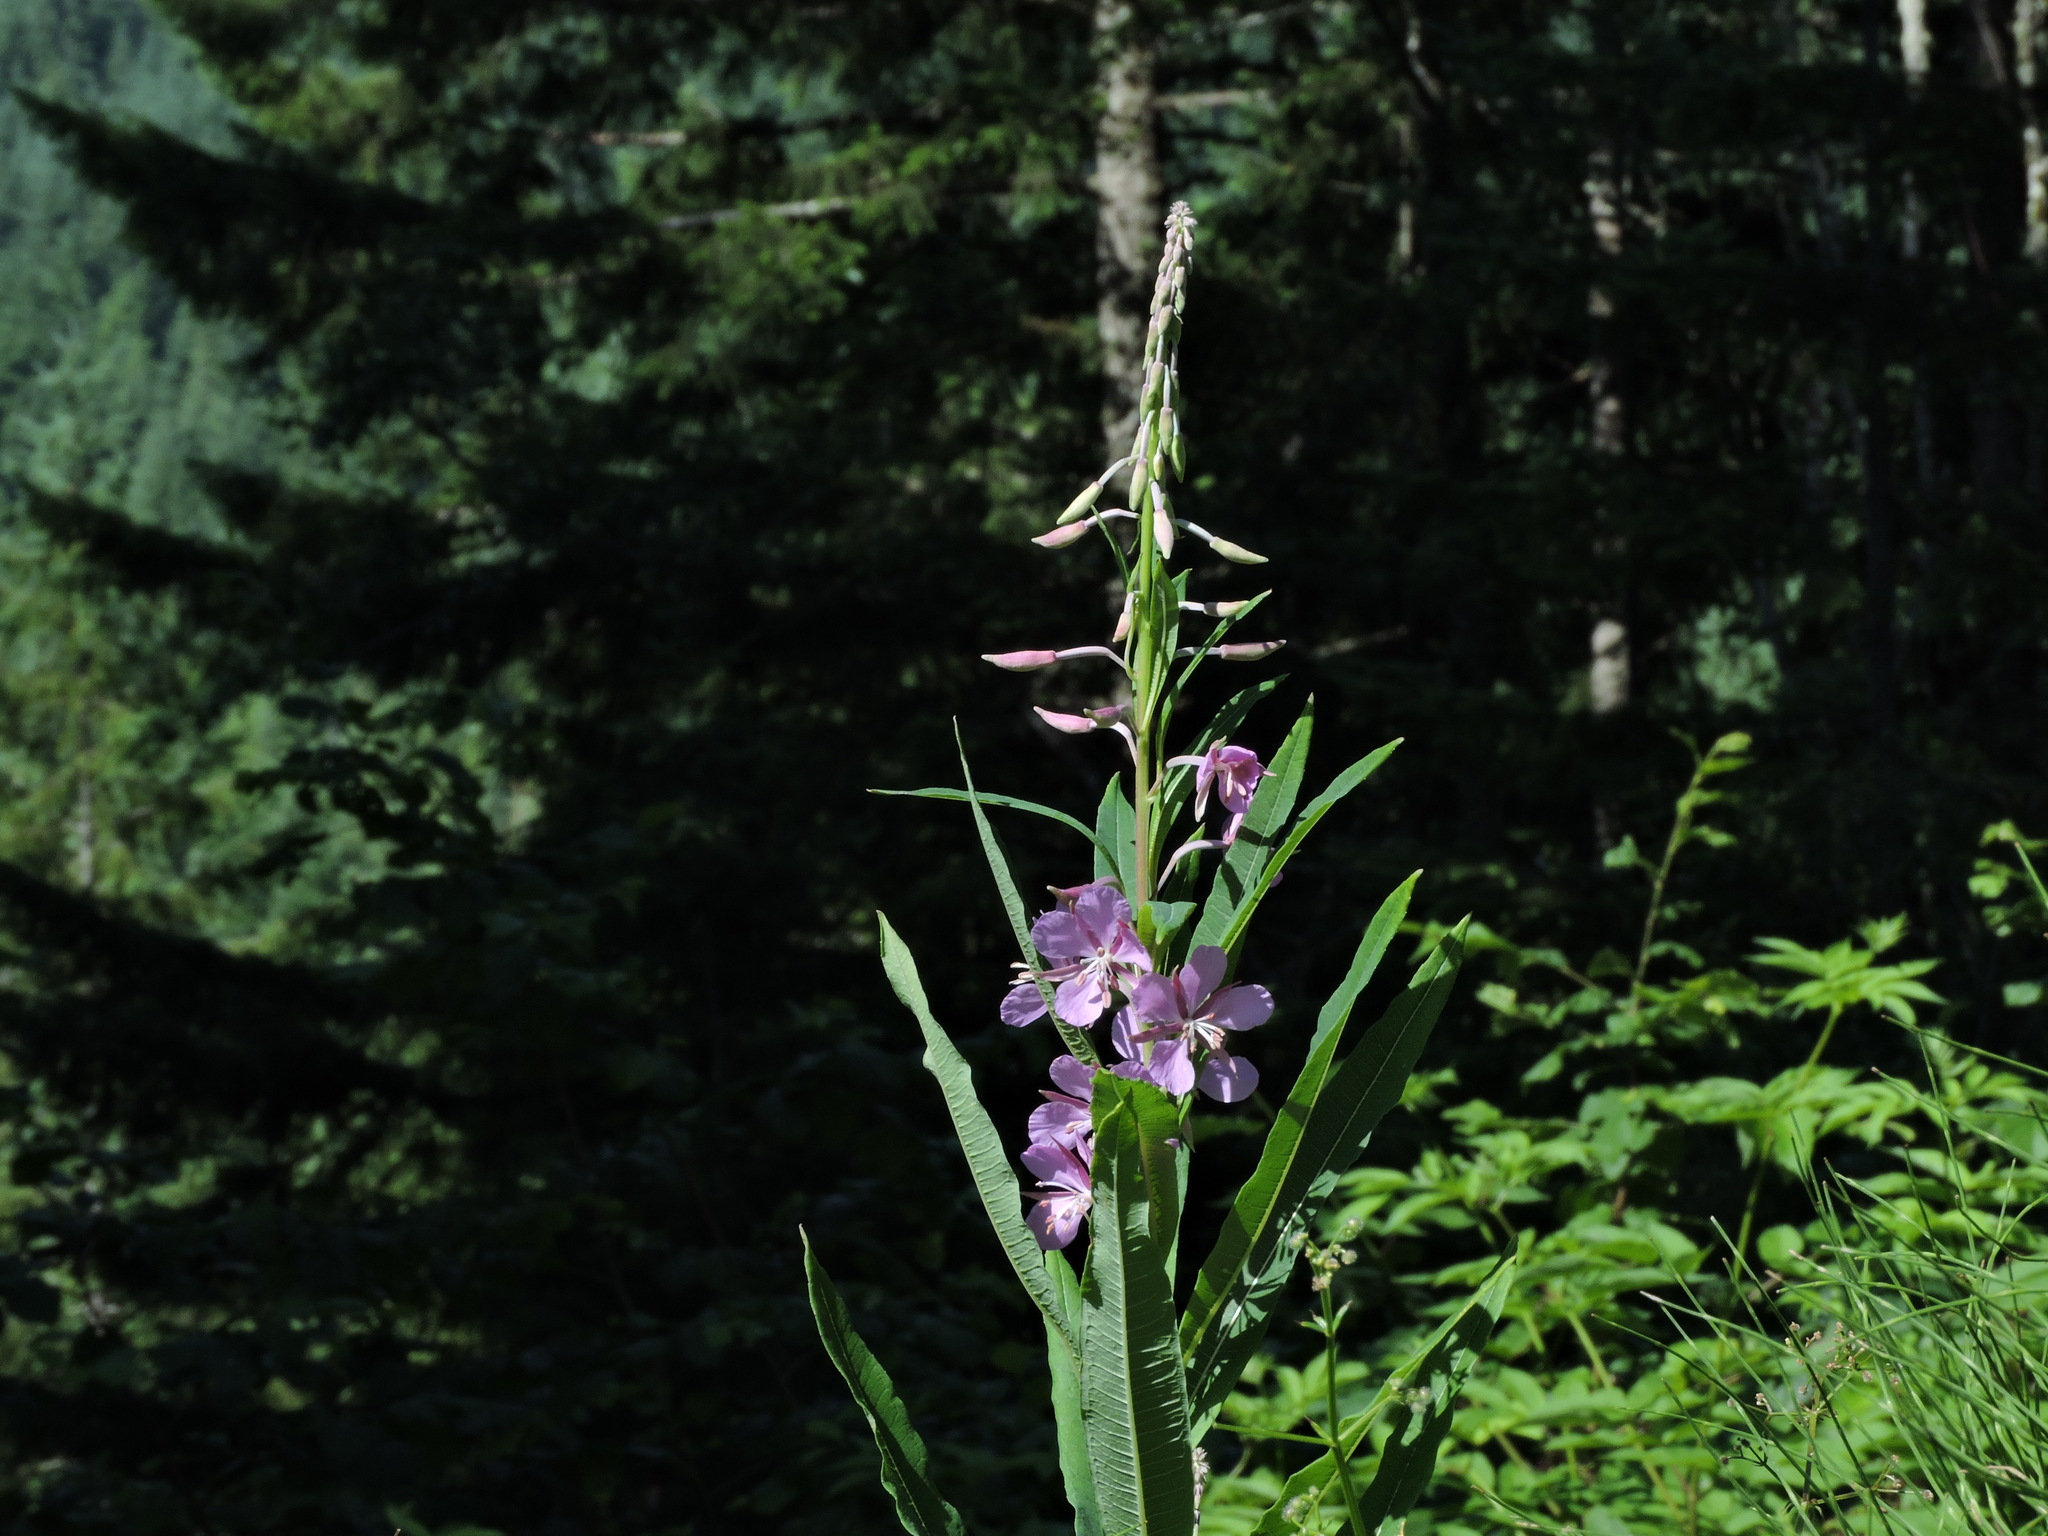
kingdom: Plantae
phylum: Tracheophyta
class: Magnoliopsida
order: Myrtales
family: Onagraceae
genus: Chamaenerion
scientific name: Chamaenerion angustifolium
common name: Fireweed
